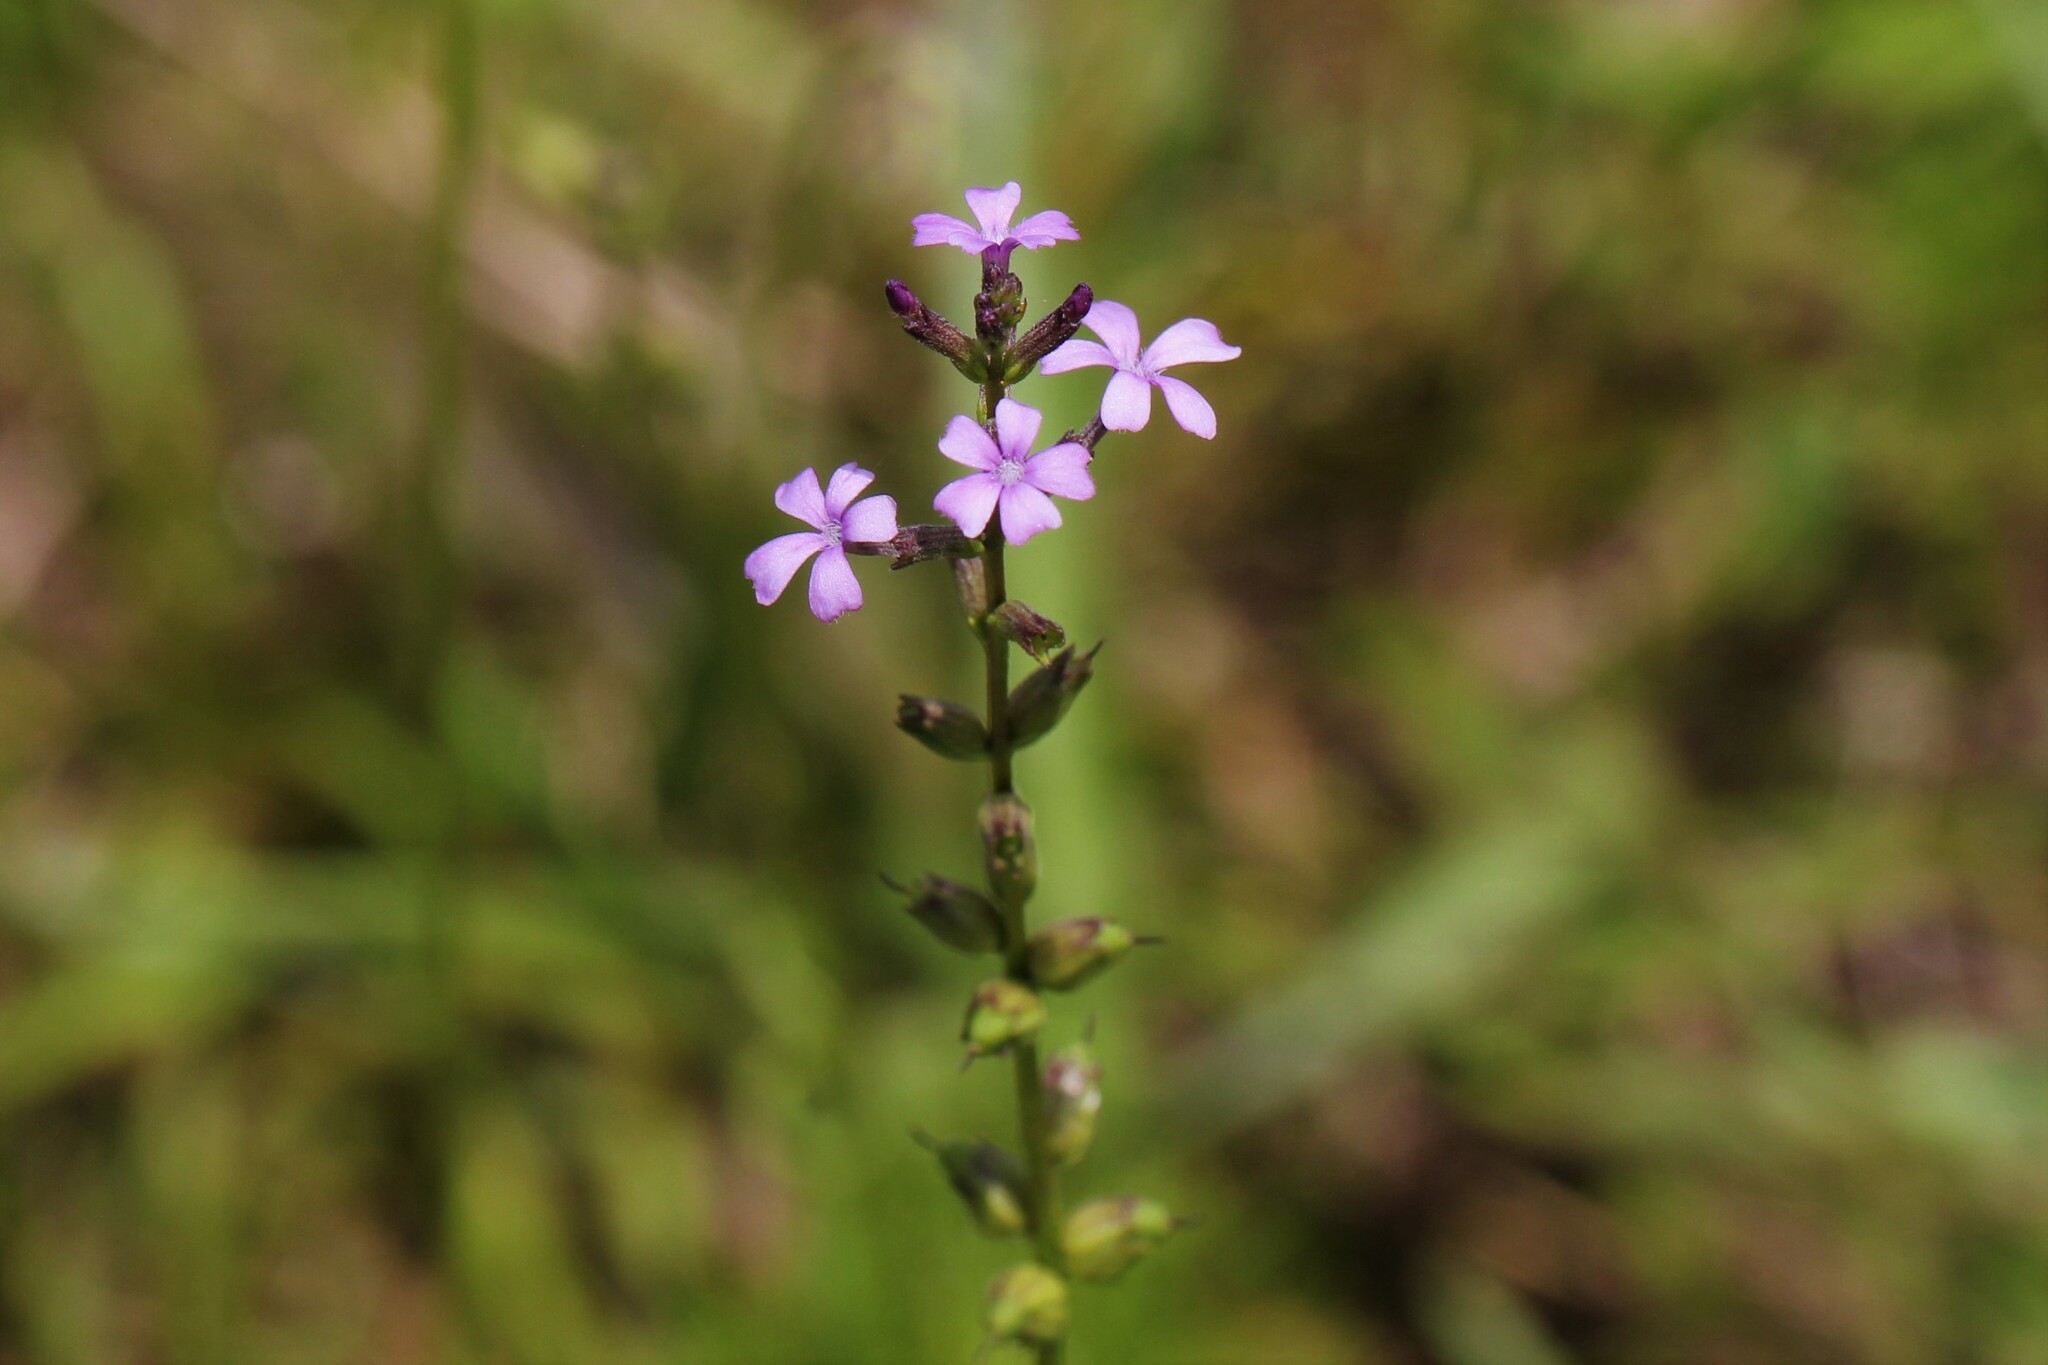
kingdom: Plantae
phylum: Tracheophyta
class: Magnoliopsida
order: Lamiales
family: Orobanchaceae
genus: Buchnera
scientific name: Buchnera floridana
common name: Florida bluehearts
